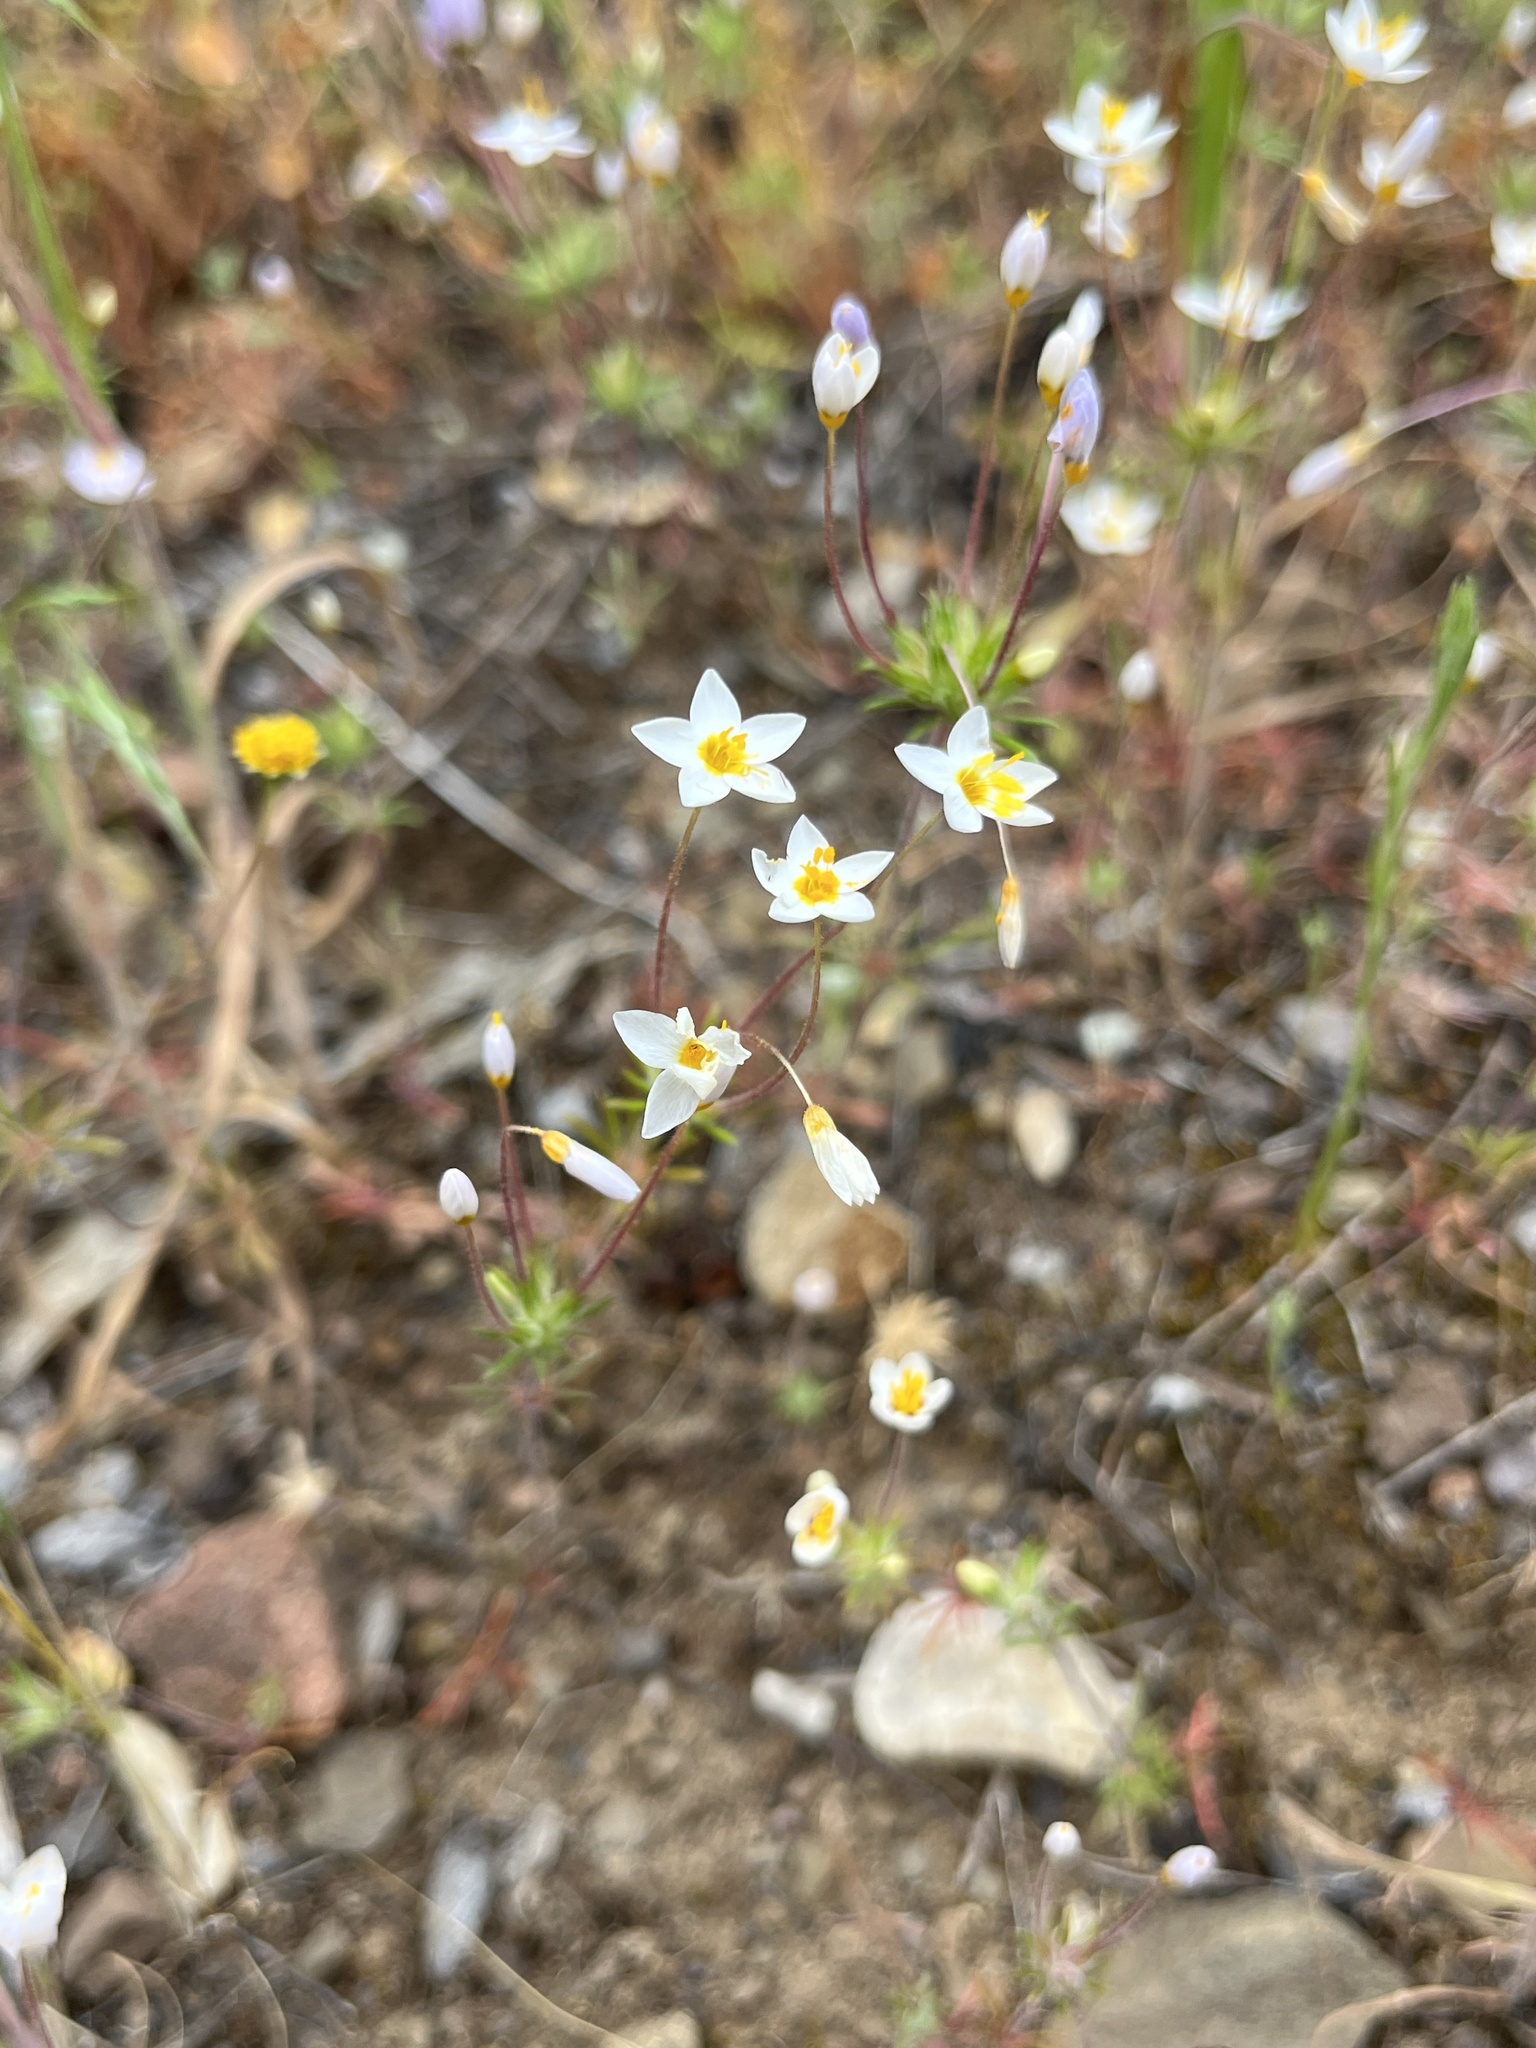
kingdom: Plantae
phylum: Tracheophyta
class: Magnoliopsida
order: Ericales
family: Polemoniaceae
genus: Leptosiphon
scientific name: Leptosiphon parviflorus
